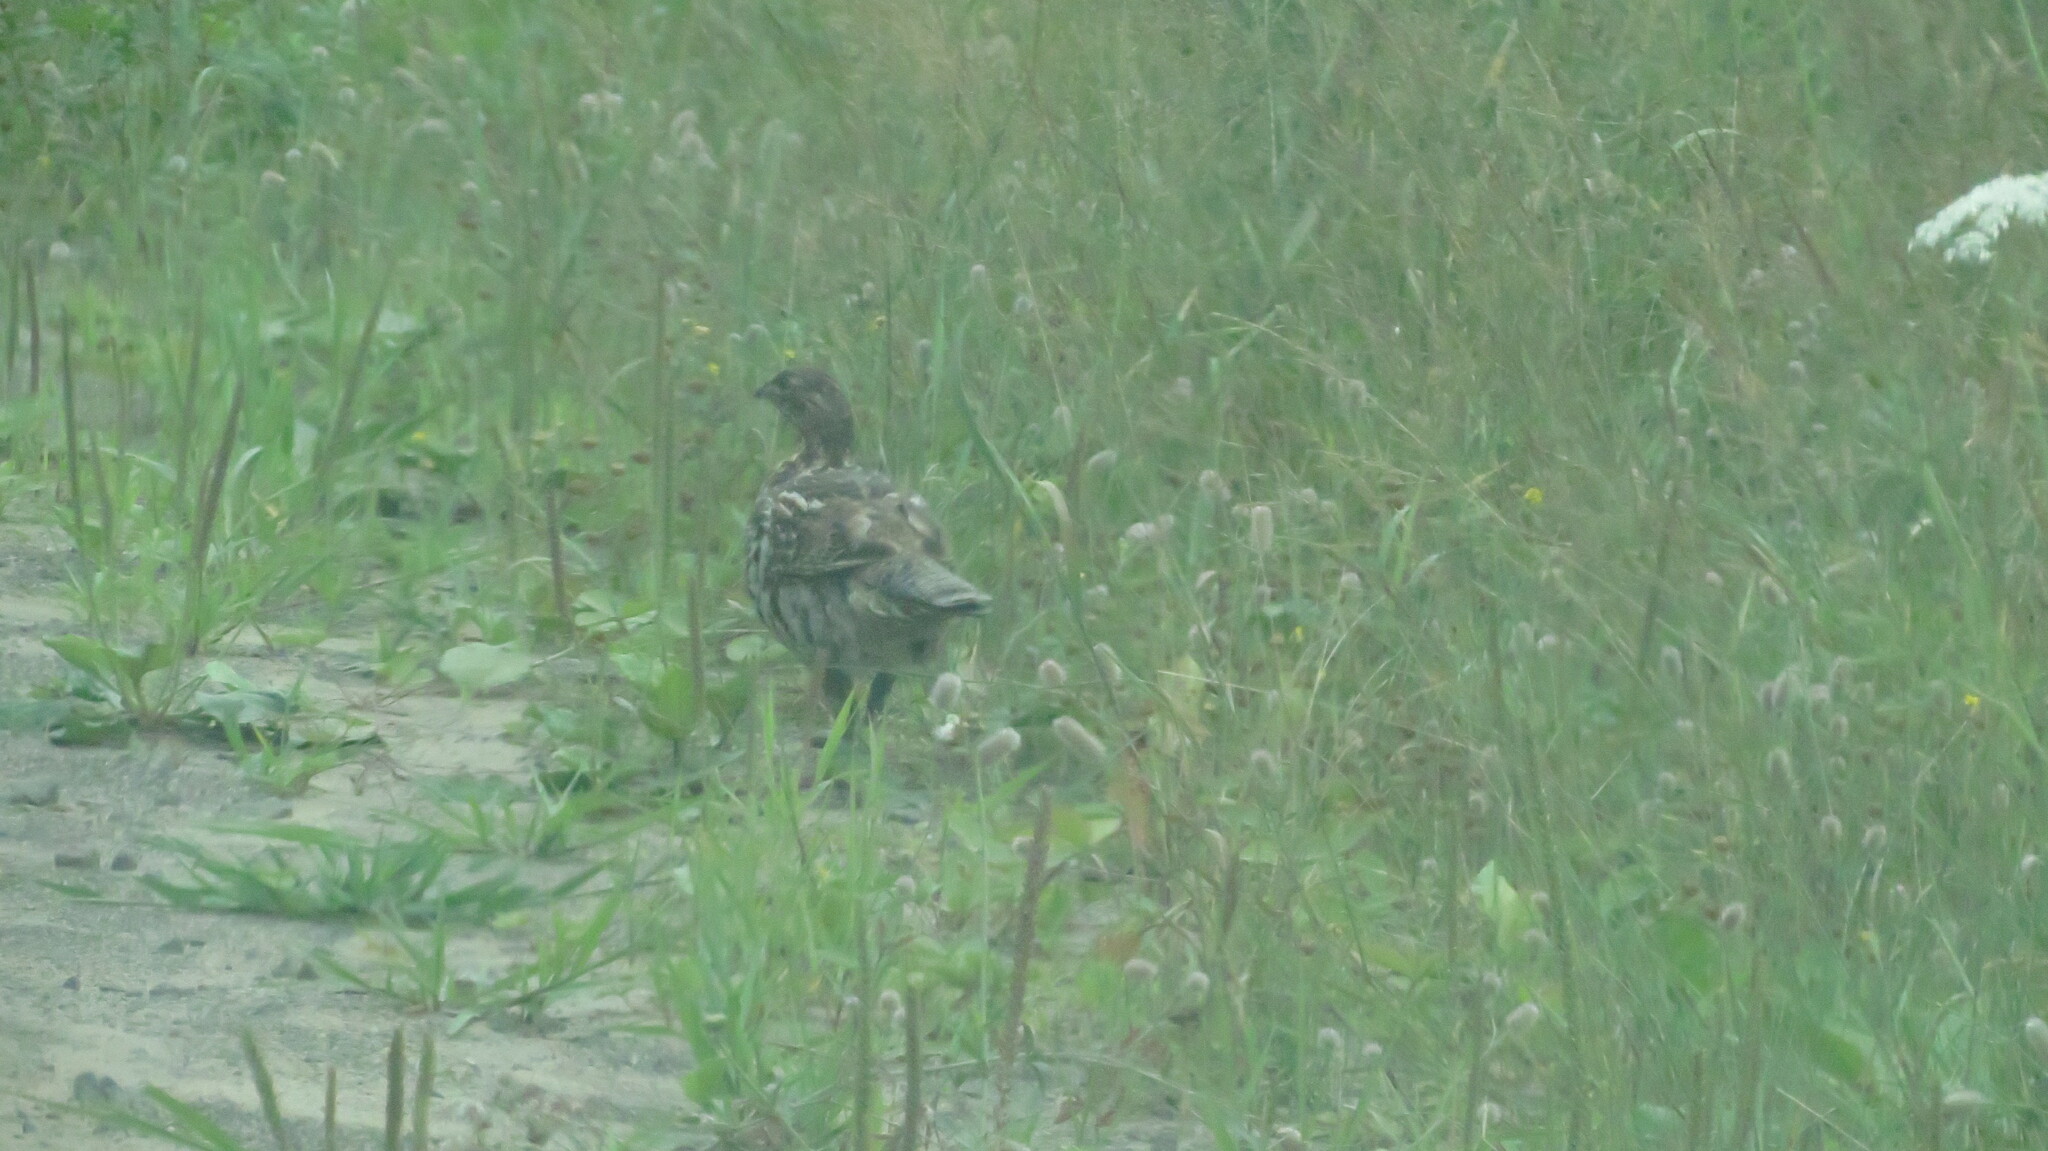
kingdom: Animalia
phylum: Chordata
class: Aves
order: Galliformes
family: Phasianidae
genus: Bonasa
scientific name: Bonasa umbellus
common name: Ruffed grouse
